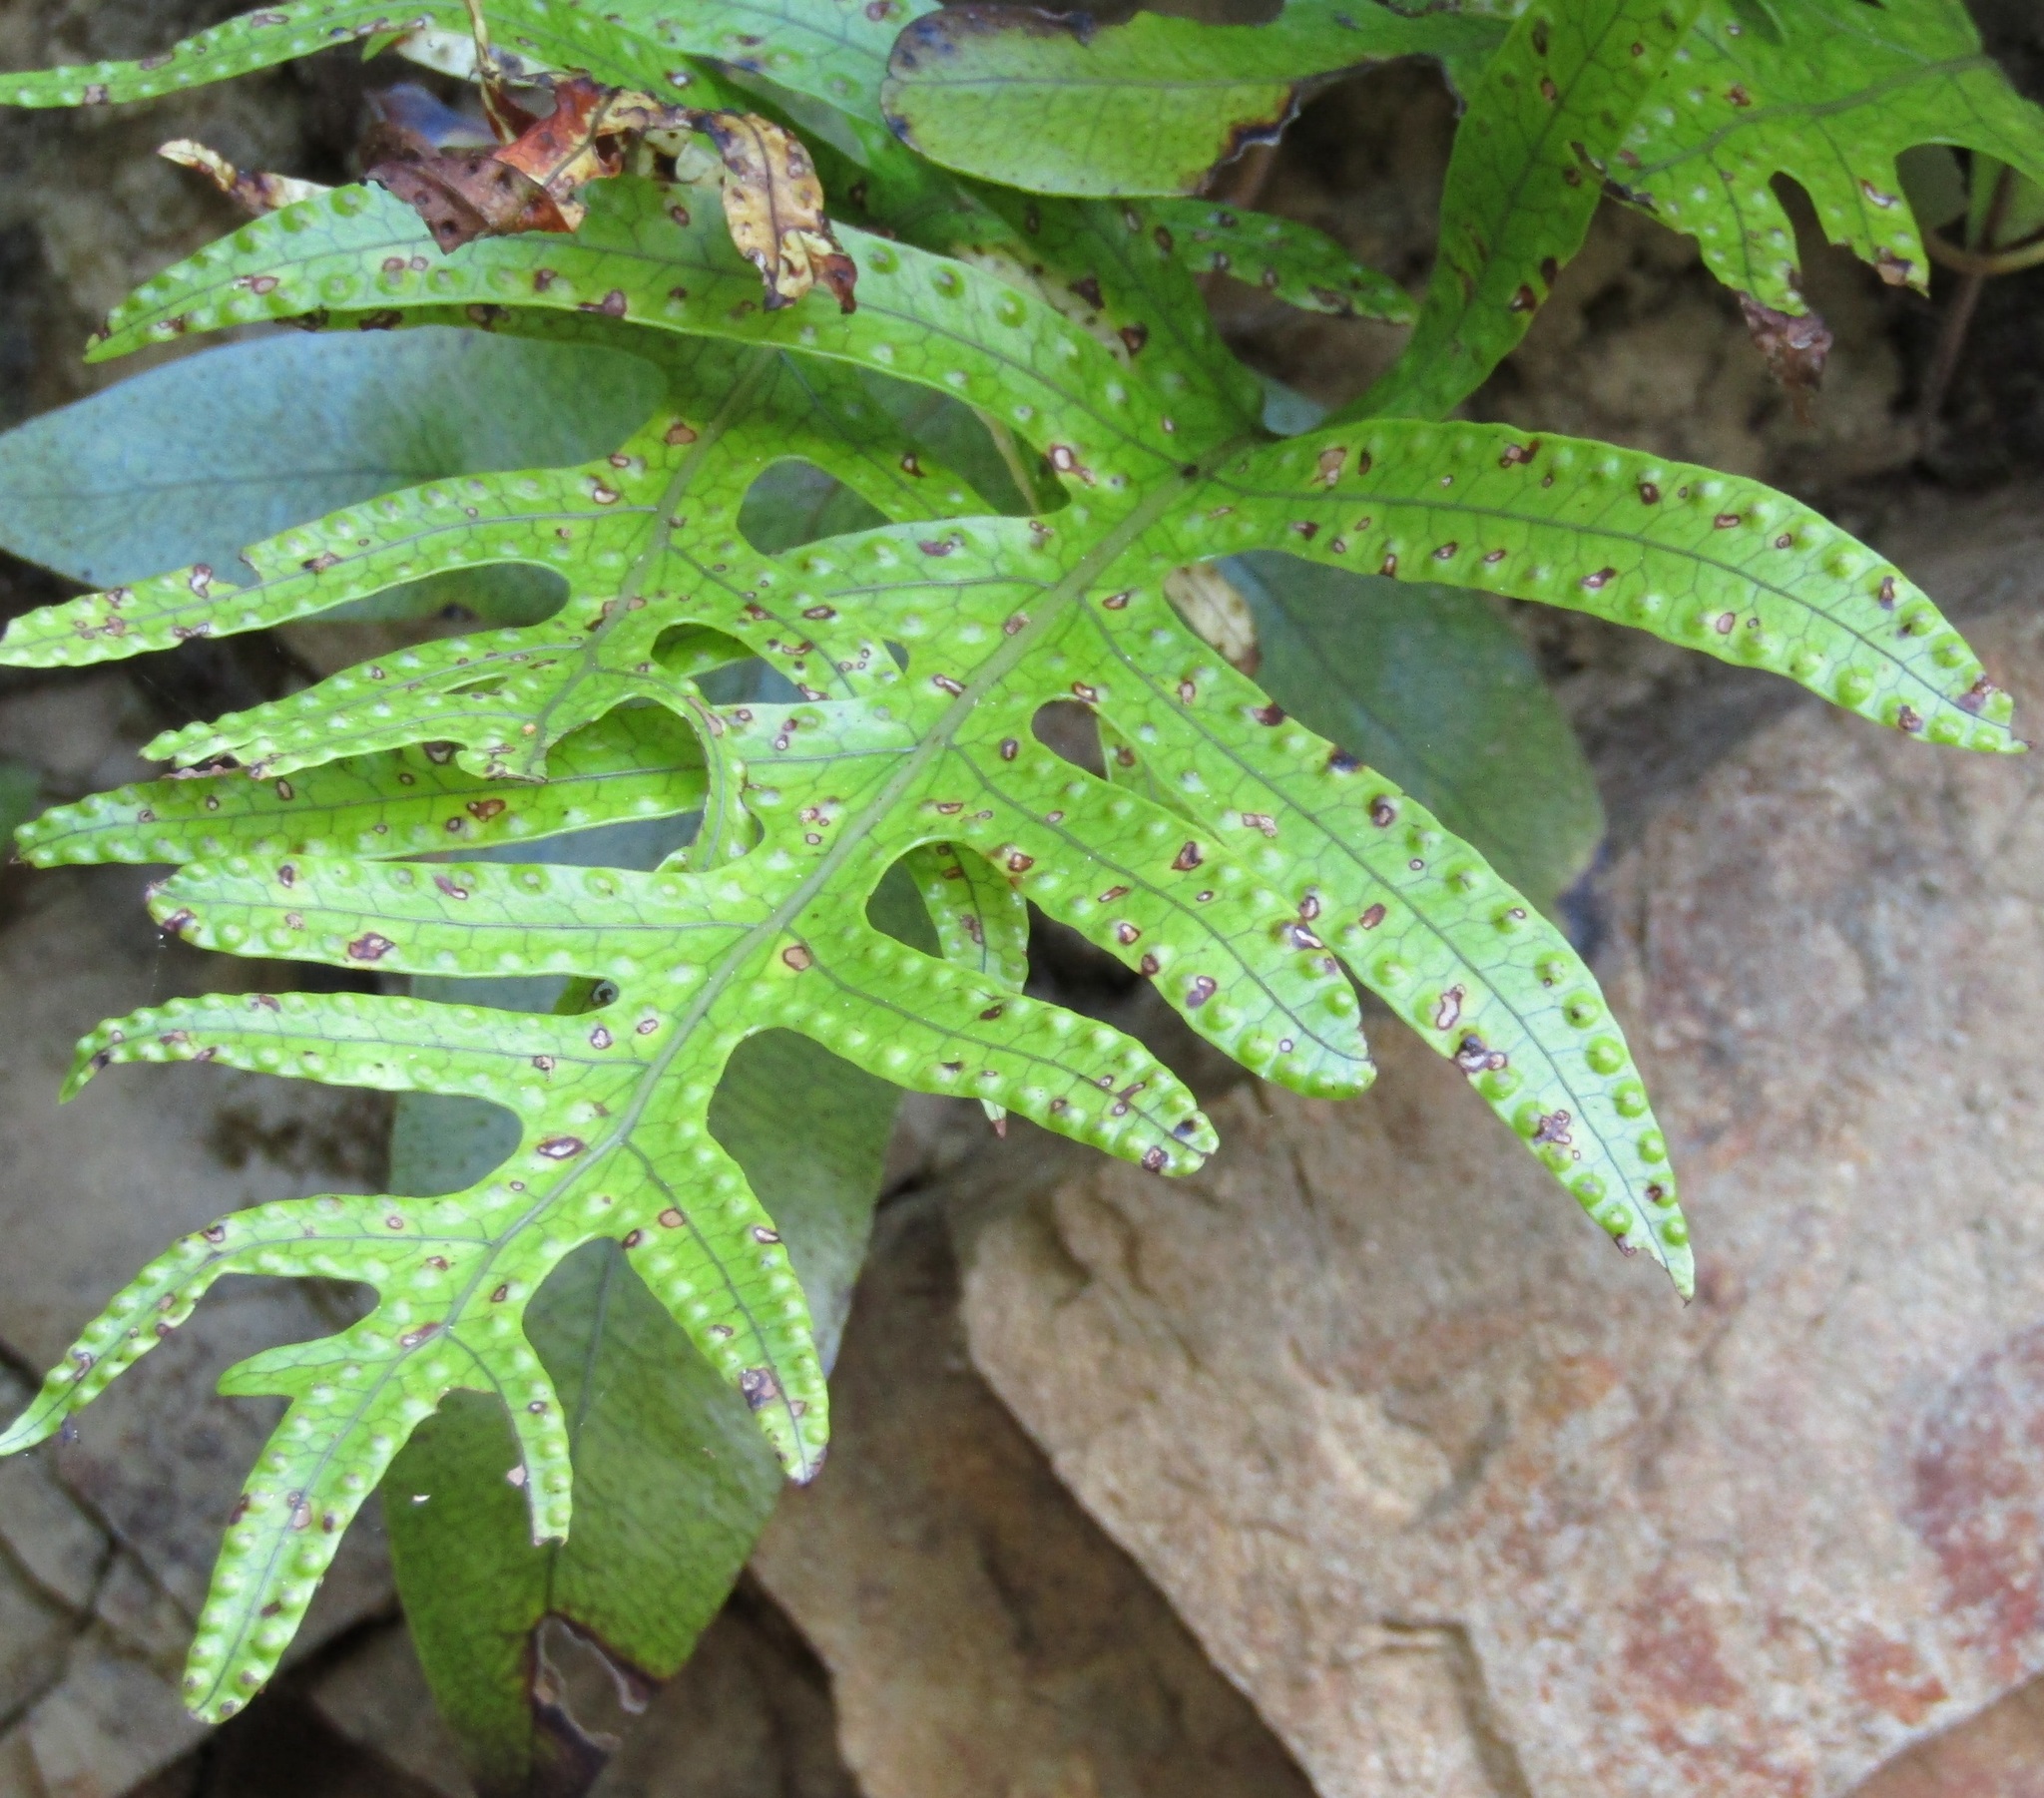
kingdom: Plantae
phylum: Tracheophyta
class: Polypodiopsida
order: Polypodiales
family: Polypodiaceae
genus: Lecanopteris
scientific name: Lecanopteris pustulata
